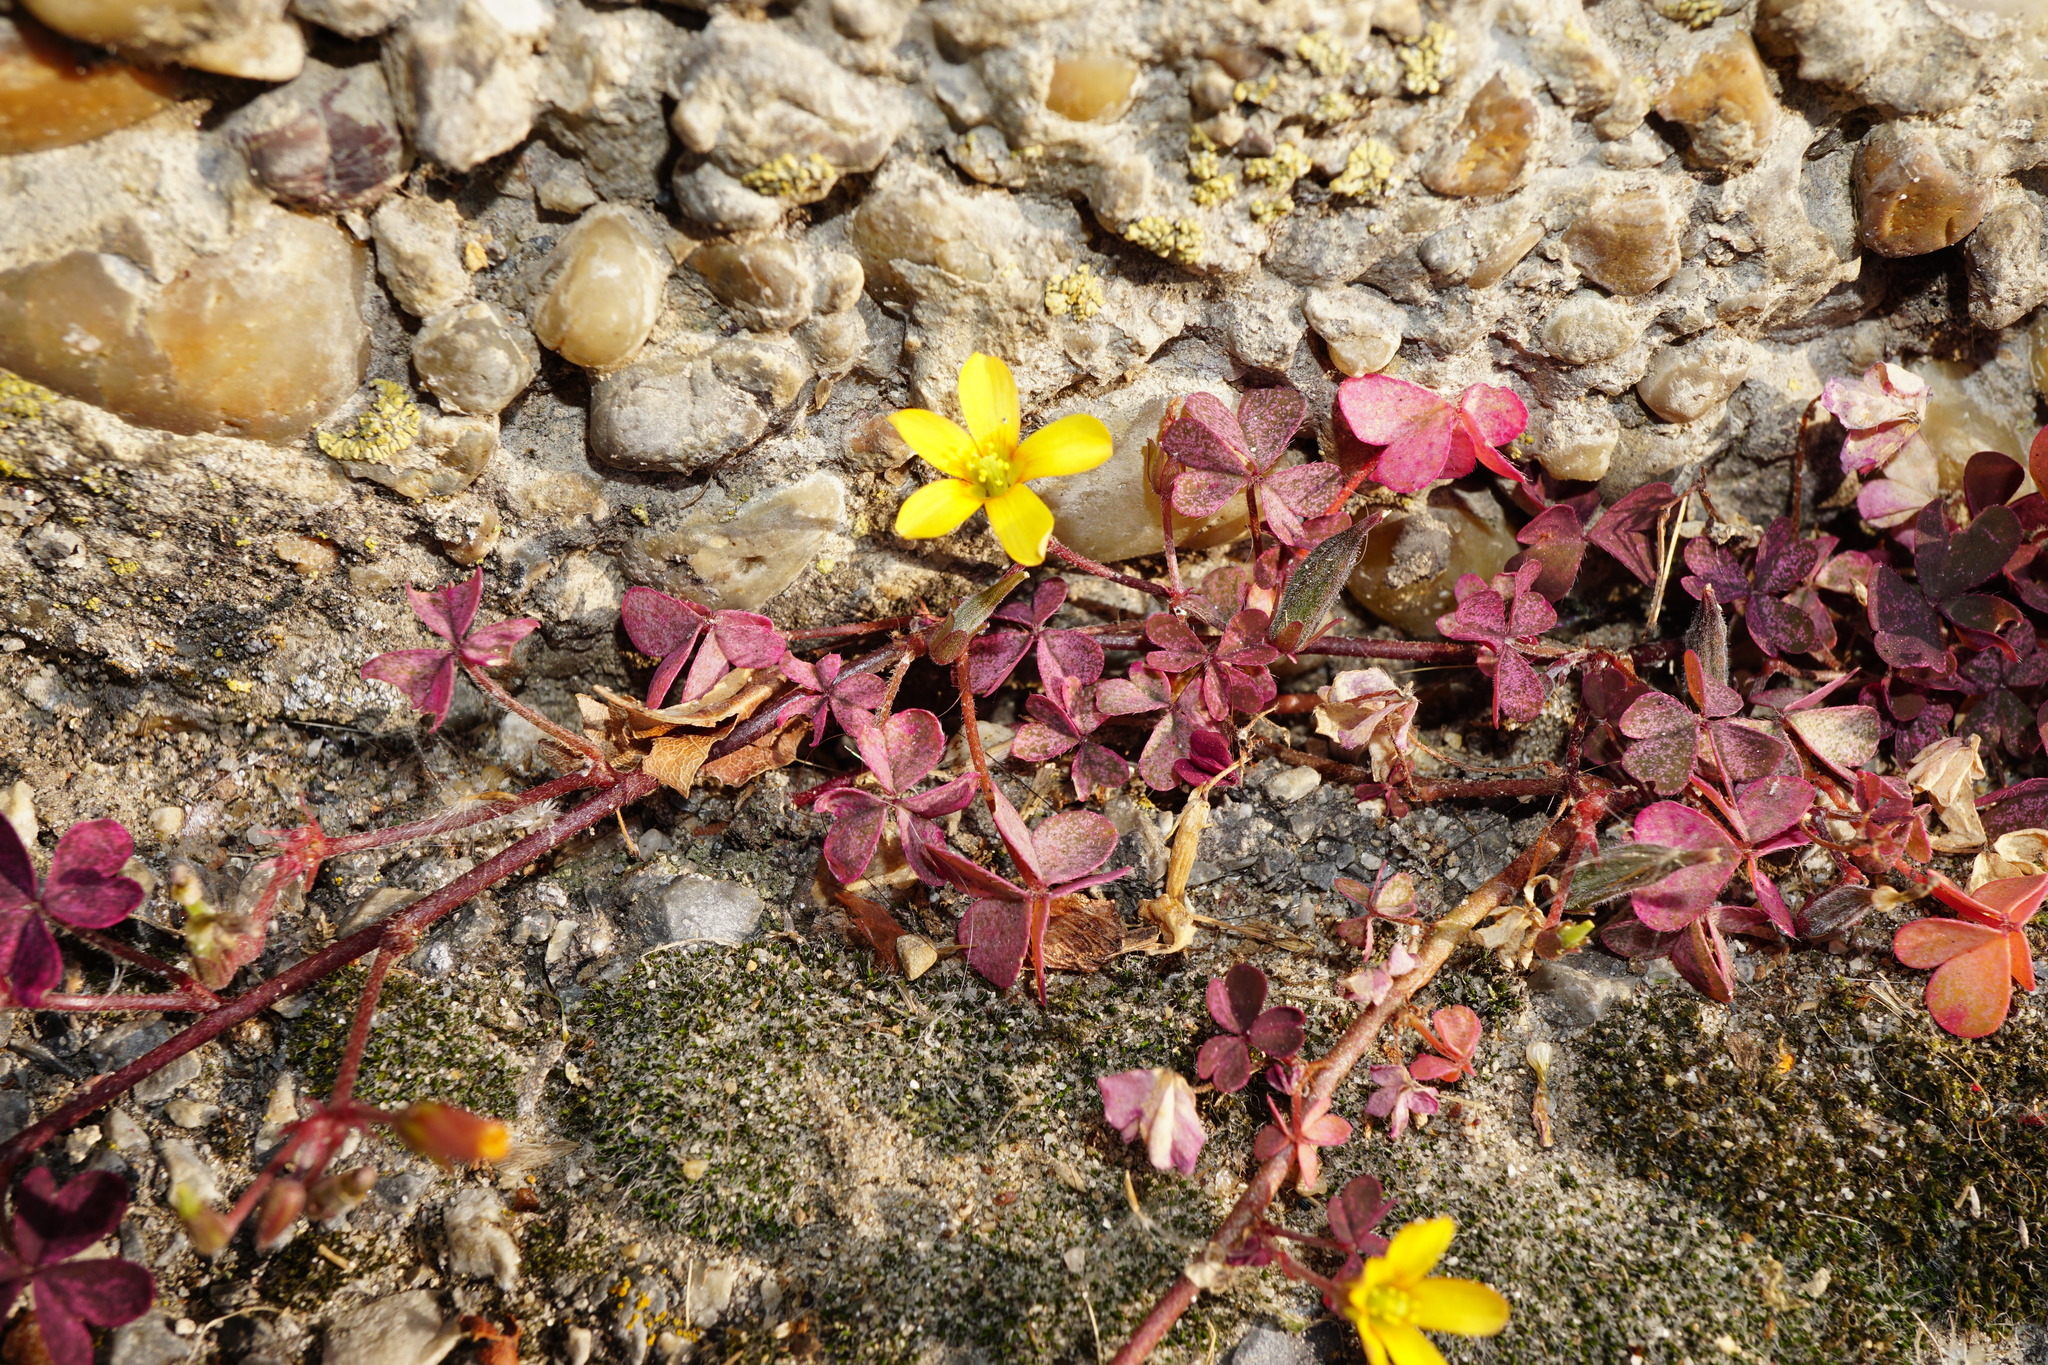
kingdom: Plantae
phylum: Tracheophyta
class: Magnoliopsida
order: Oxalidales
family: Oxalidaceae
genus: Oxalis
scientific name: Oxalis corniculata
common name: Procumbent yellow-sorrel
